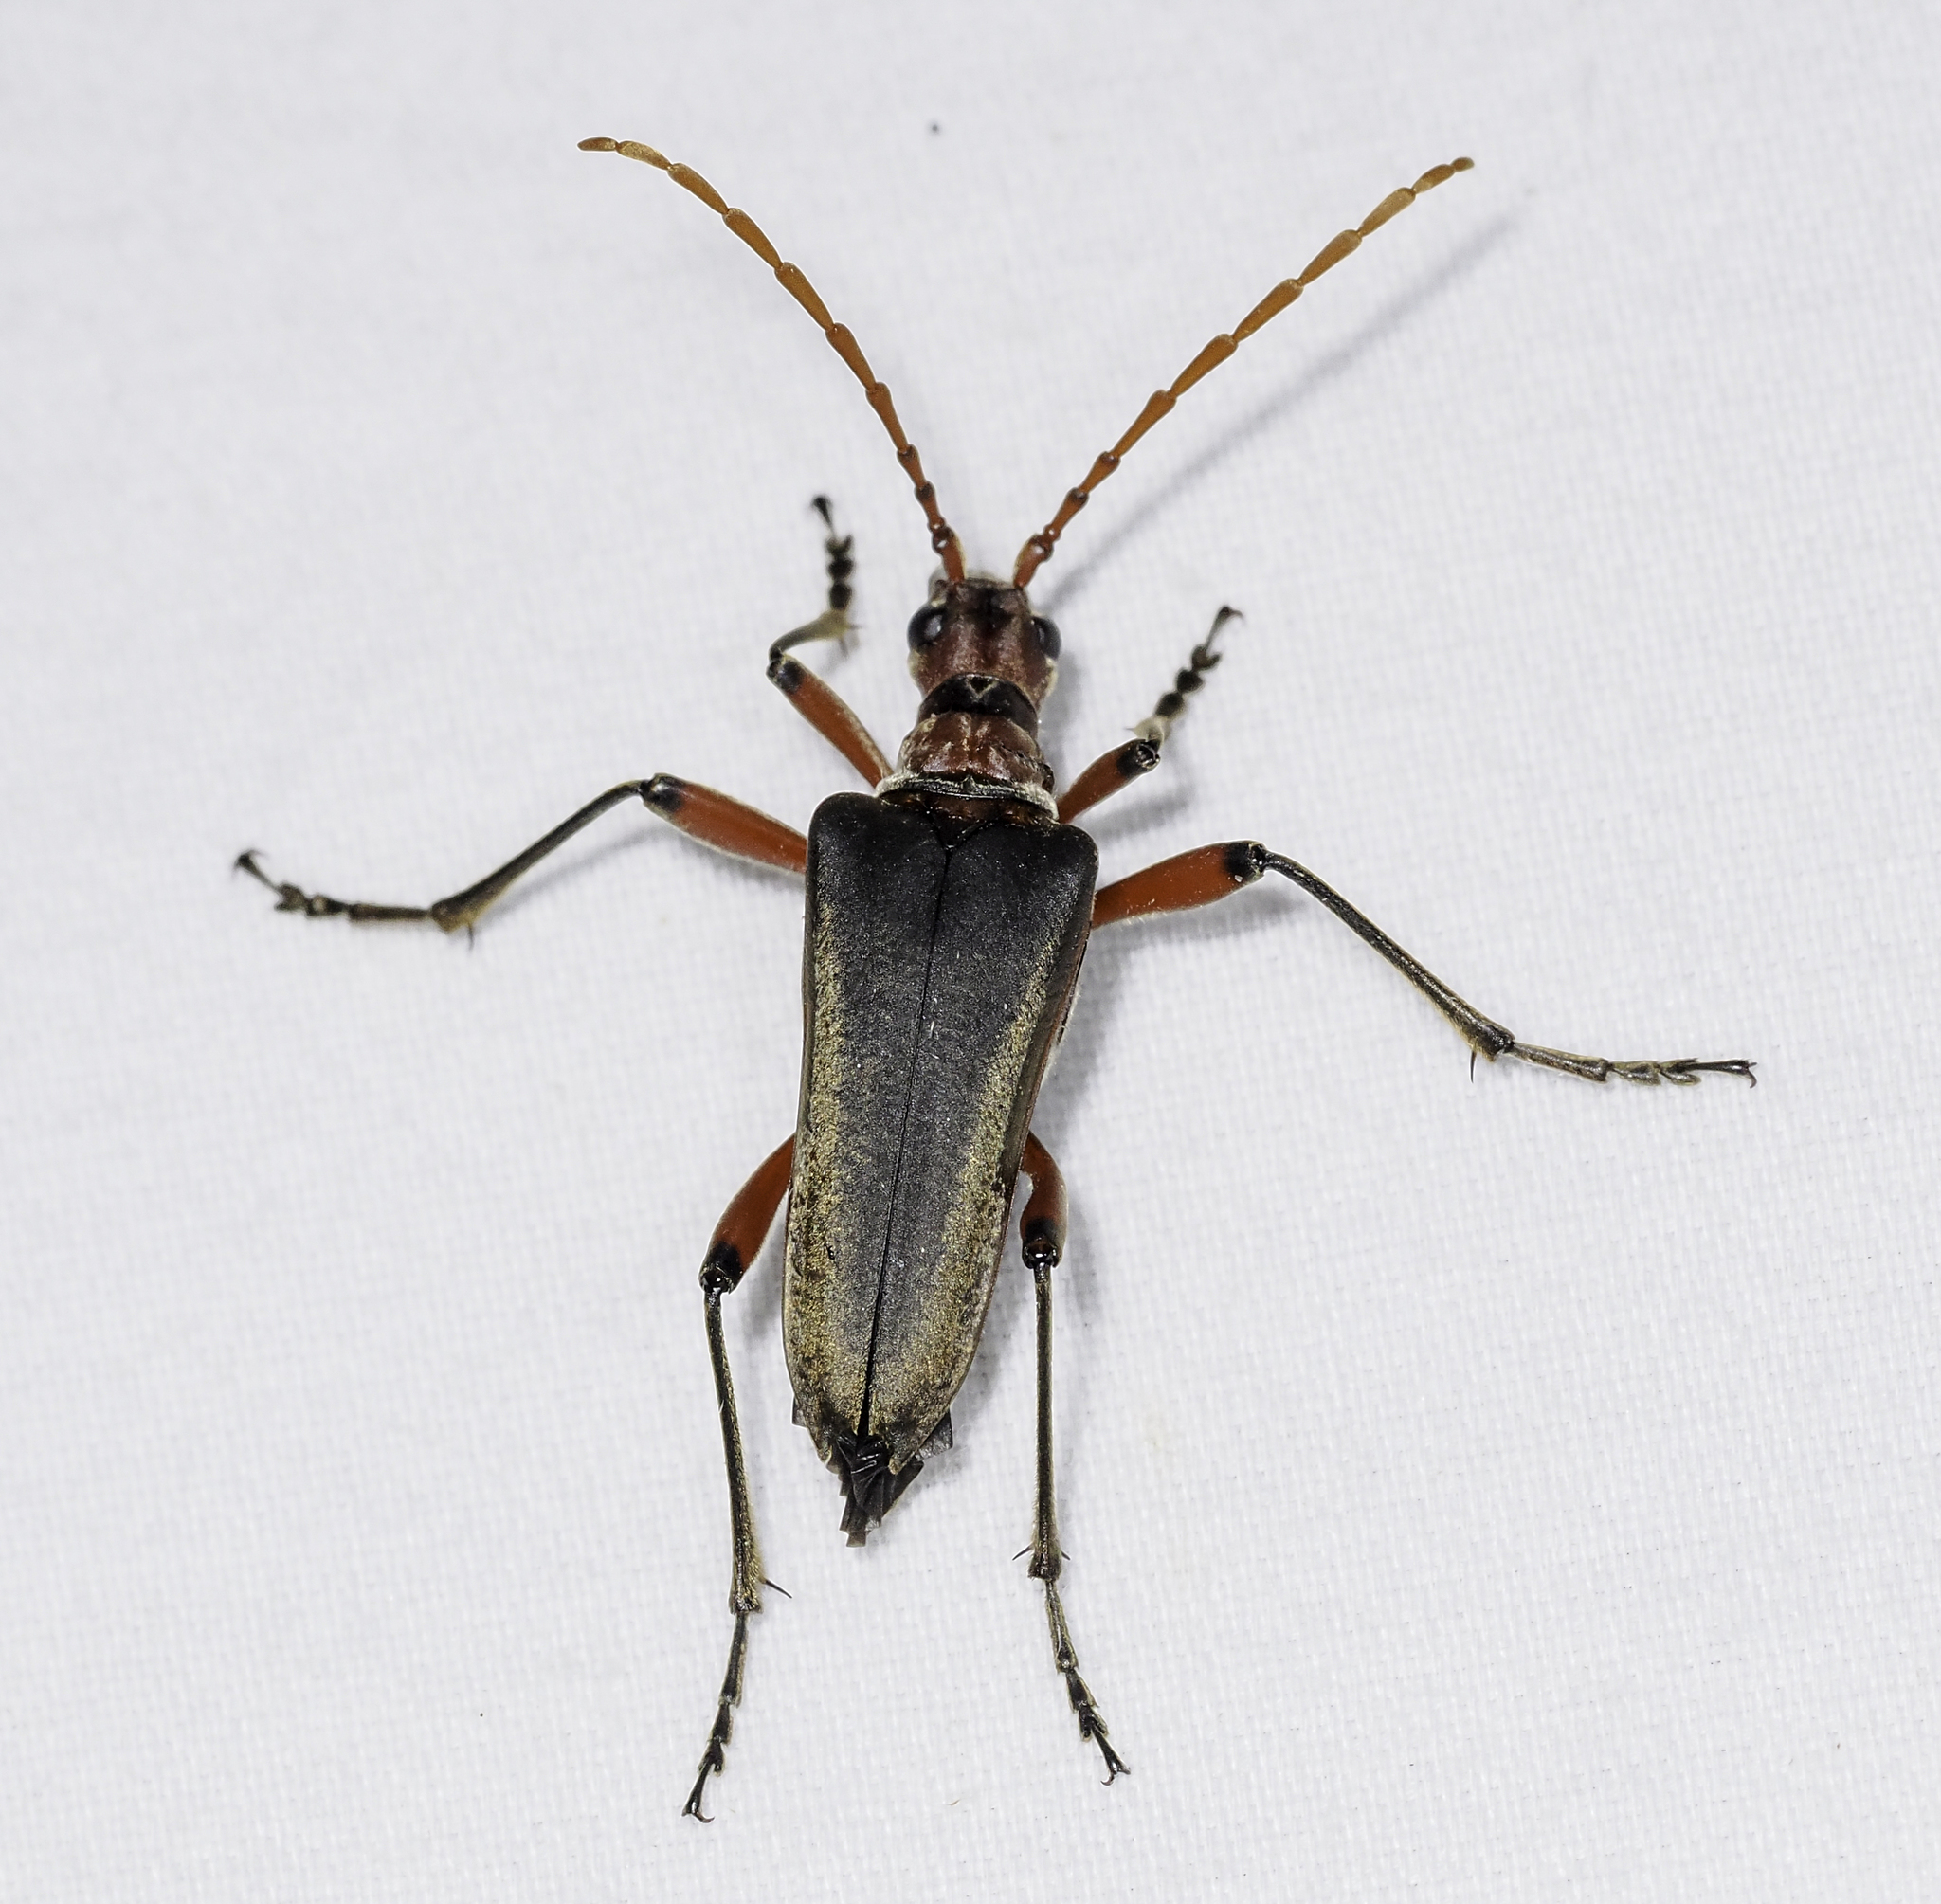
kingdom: Animalia
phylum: Arthropoda
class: Insecta
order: Coleoptera
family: Cerambycidae
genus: Stenocorus
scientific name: Stenocorus schaumii
